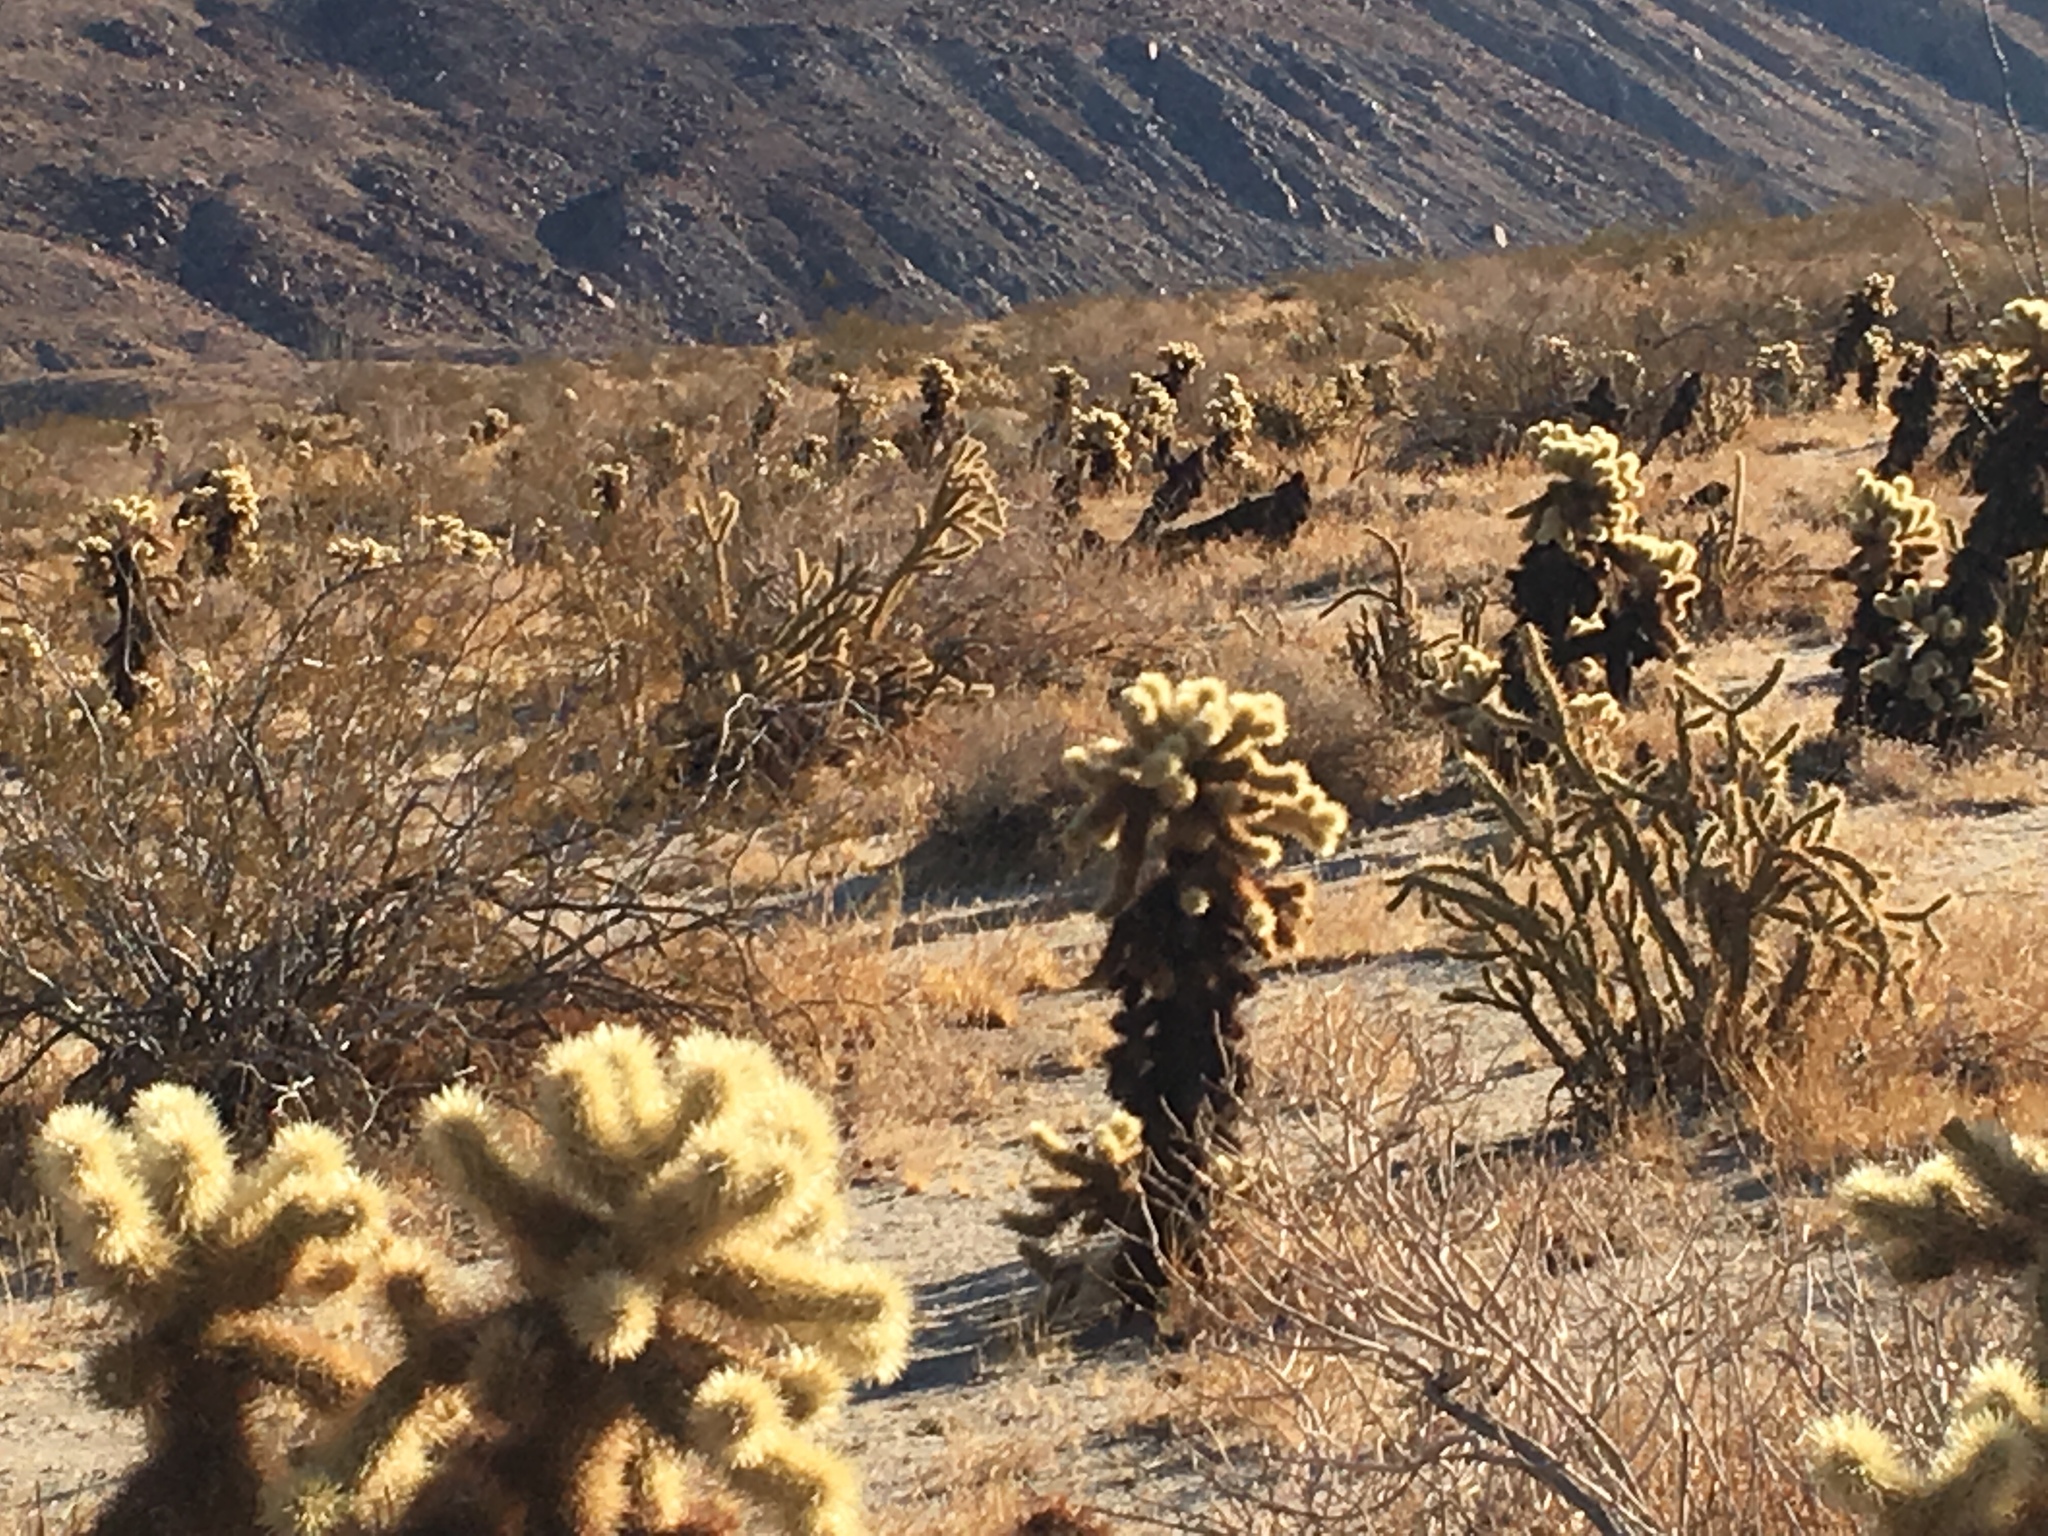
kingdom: Plantae
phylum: Tracheophyta
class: Magnoliopsida
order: Caryophyllales
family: Cactaceae
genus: Cylindropuntia
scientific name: Cylindropuntia fosbergii
